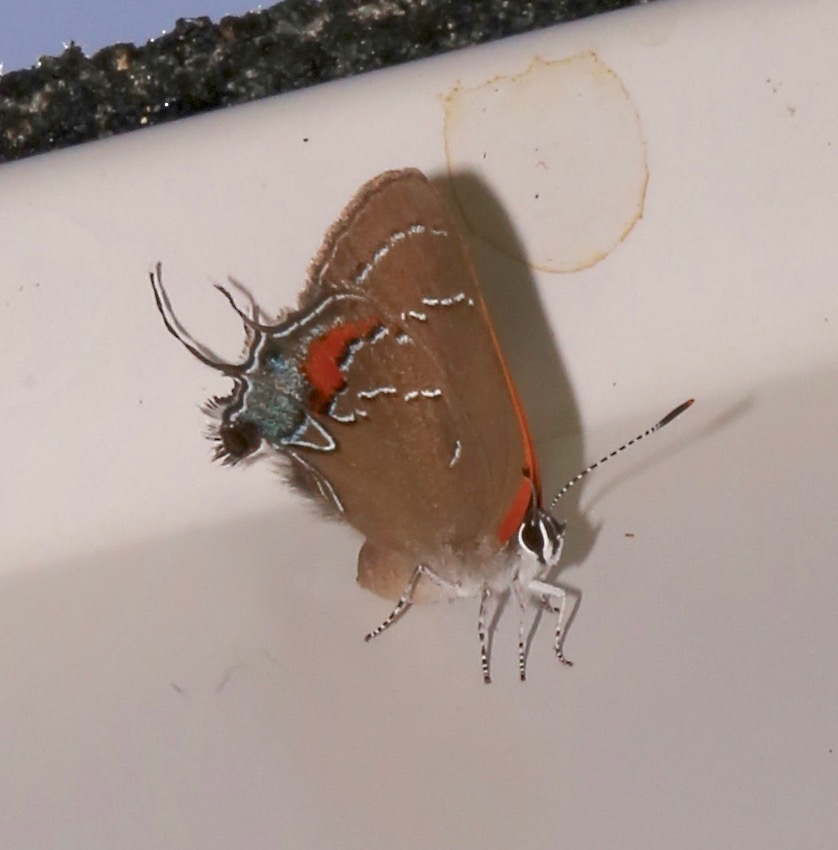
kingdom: Animalia
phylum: Arthropoda
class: Insecta
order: Lepidoptera
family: Lycaenidae
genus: Fixsenia
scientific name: Fixsenia favonius
